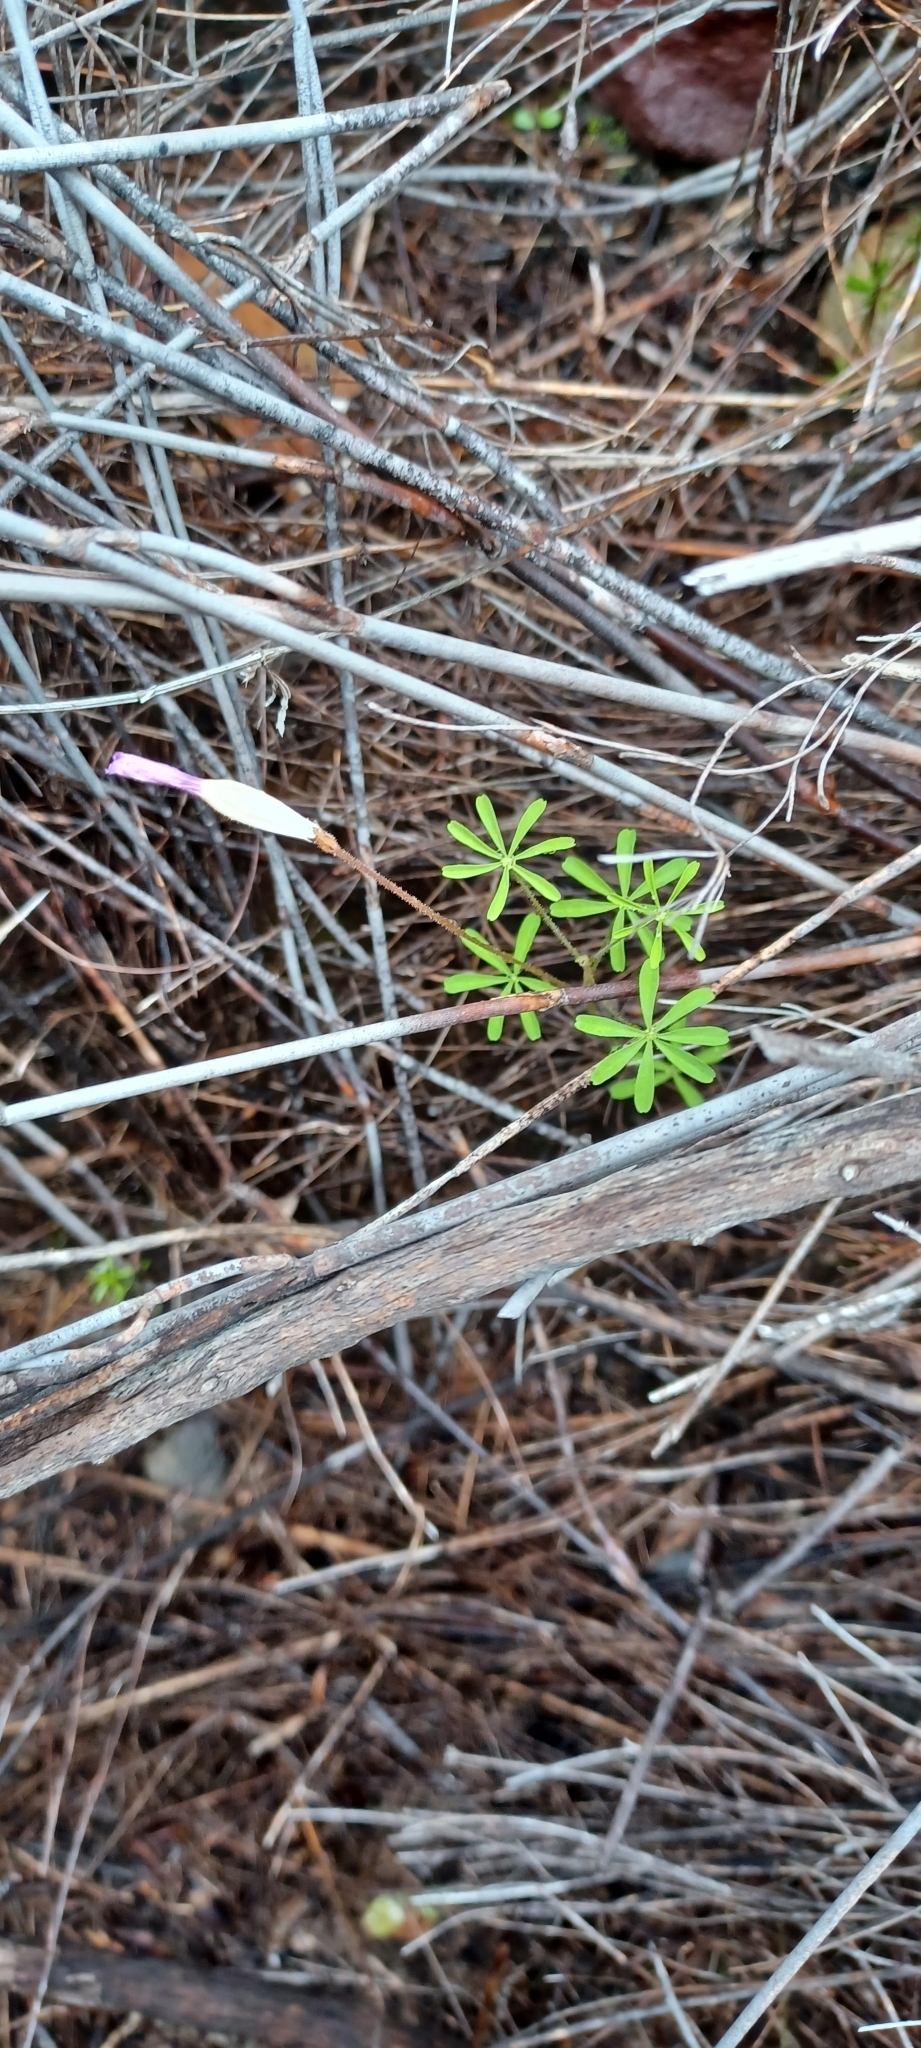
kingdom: Plantae
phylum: Tracheophyta
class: Magnoliopsida
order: Oxalidales
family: Oxalidaceae
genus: Oxalis
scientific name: Oxalis engleriana
